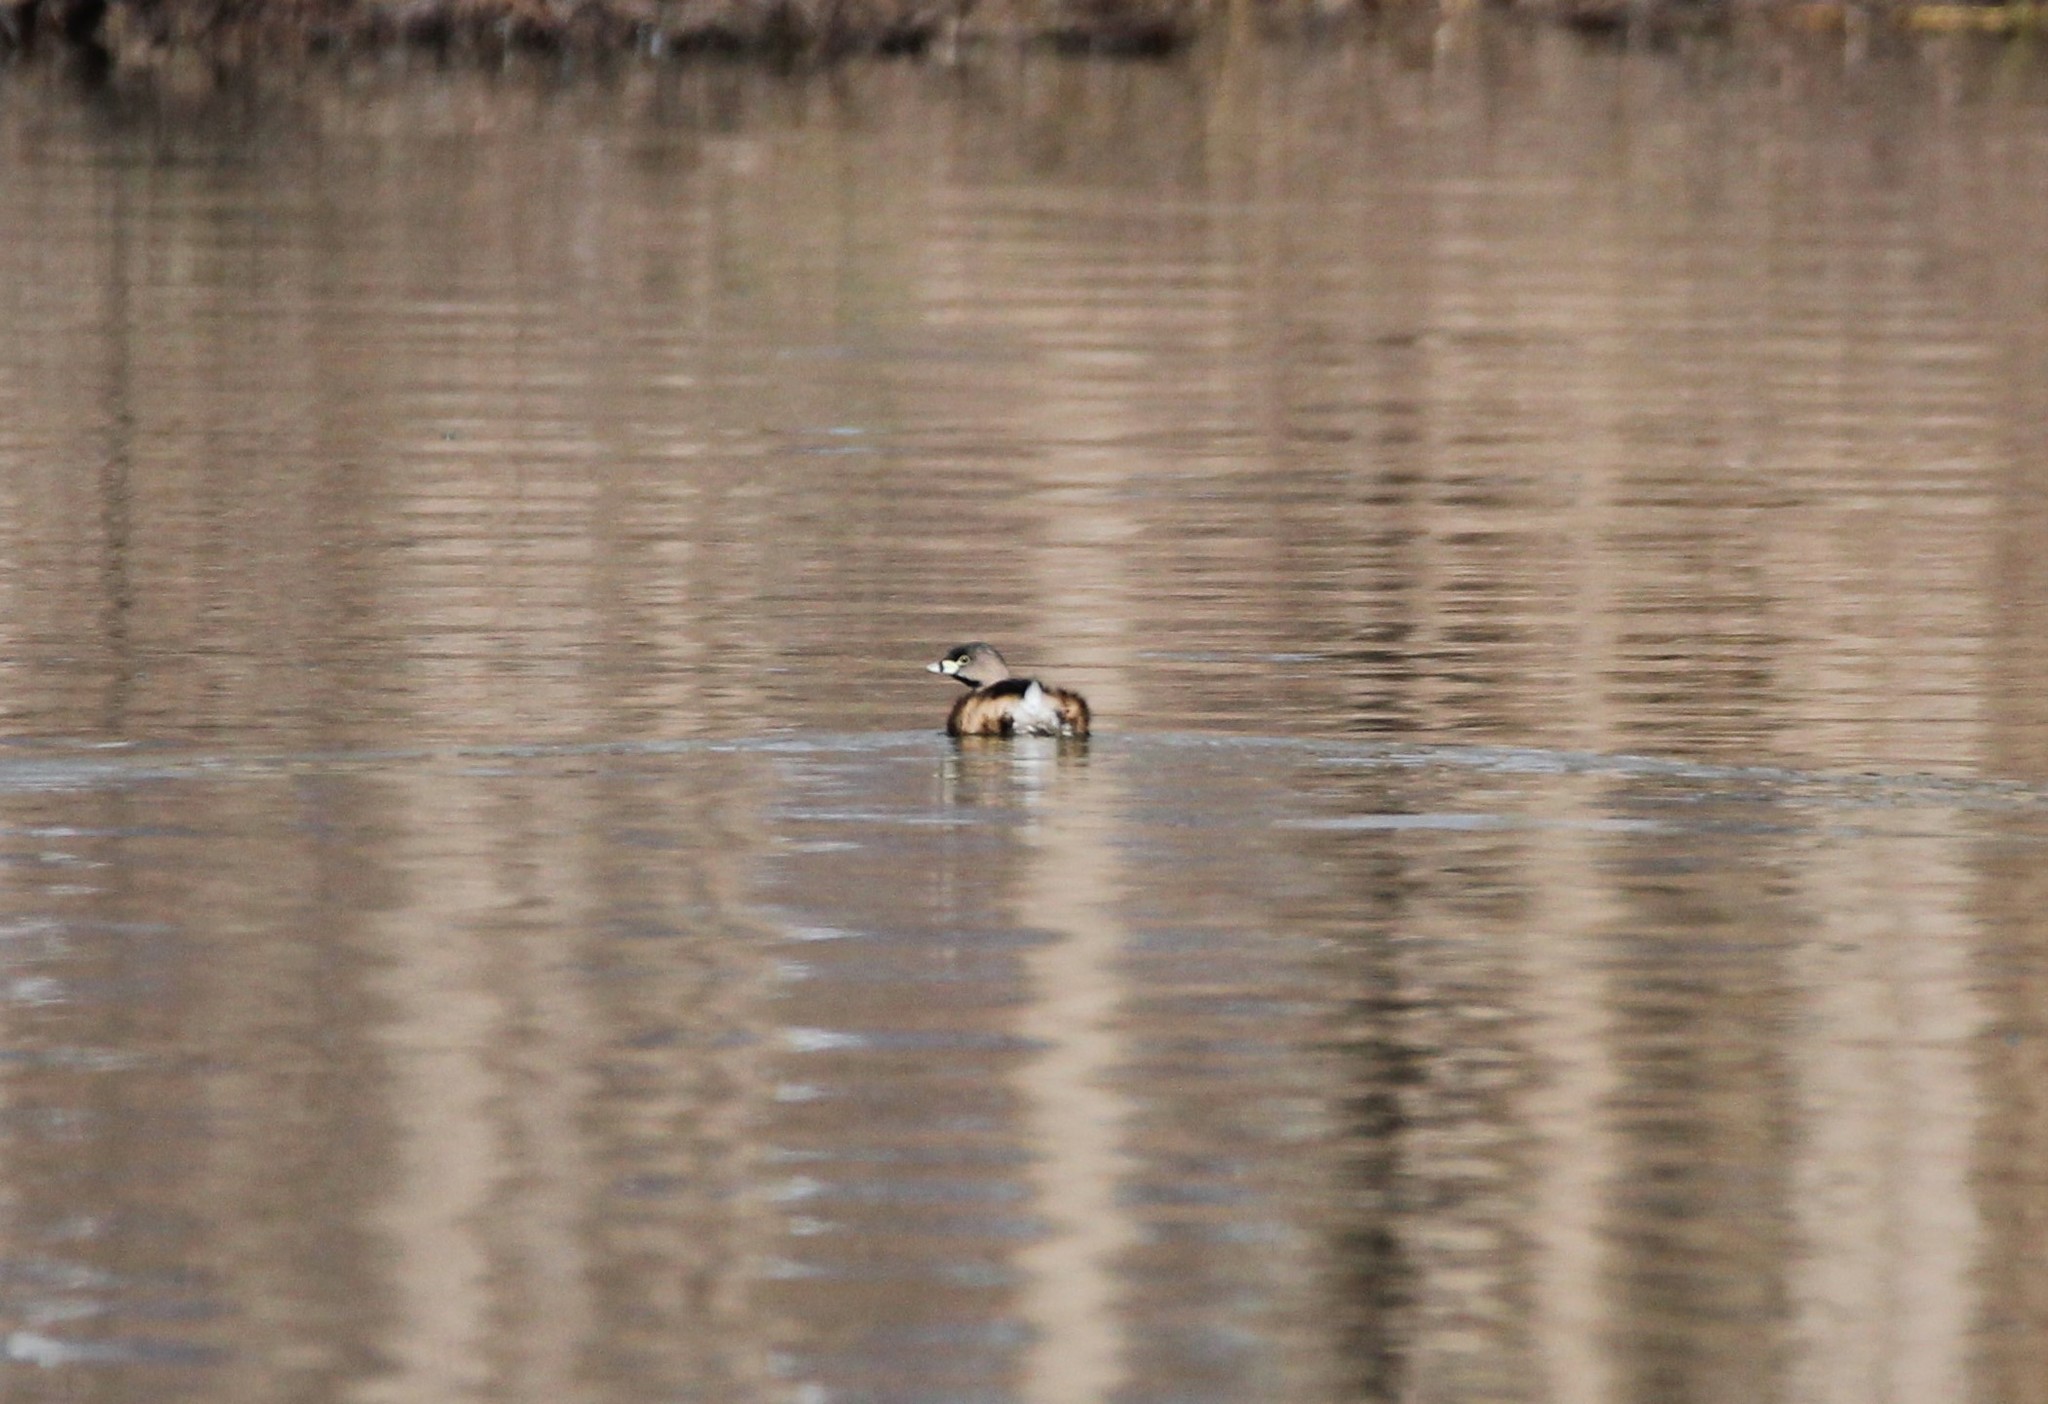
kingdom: Animalia
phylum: Chordata
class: Aves
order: Podicipediformes
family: Podicipedidae
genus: Podilymbus
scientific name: Podilymbus podiceps
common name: Pied-billed grebe
